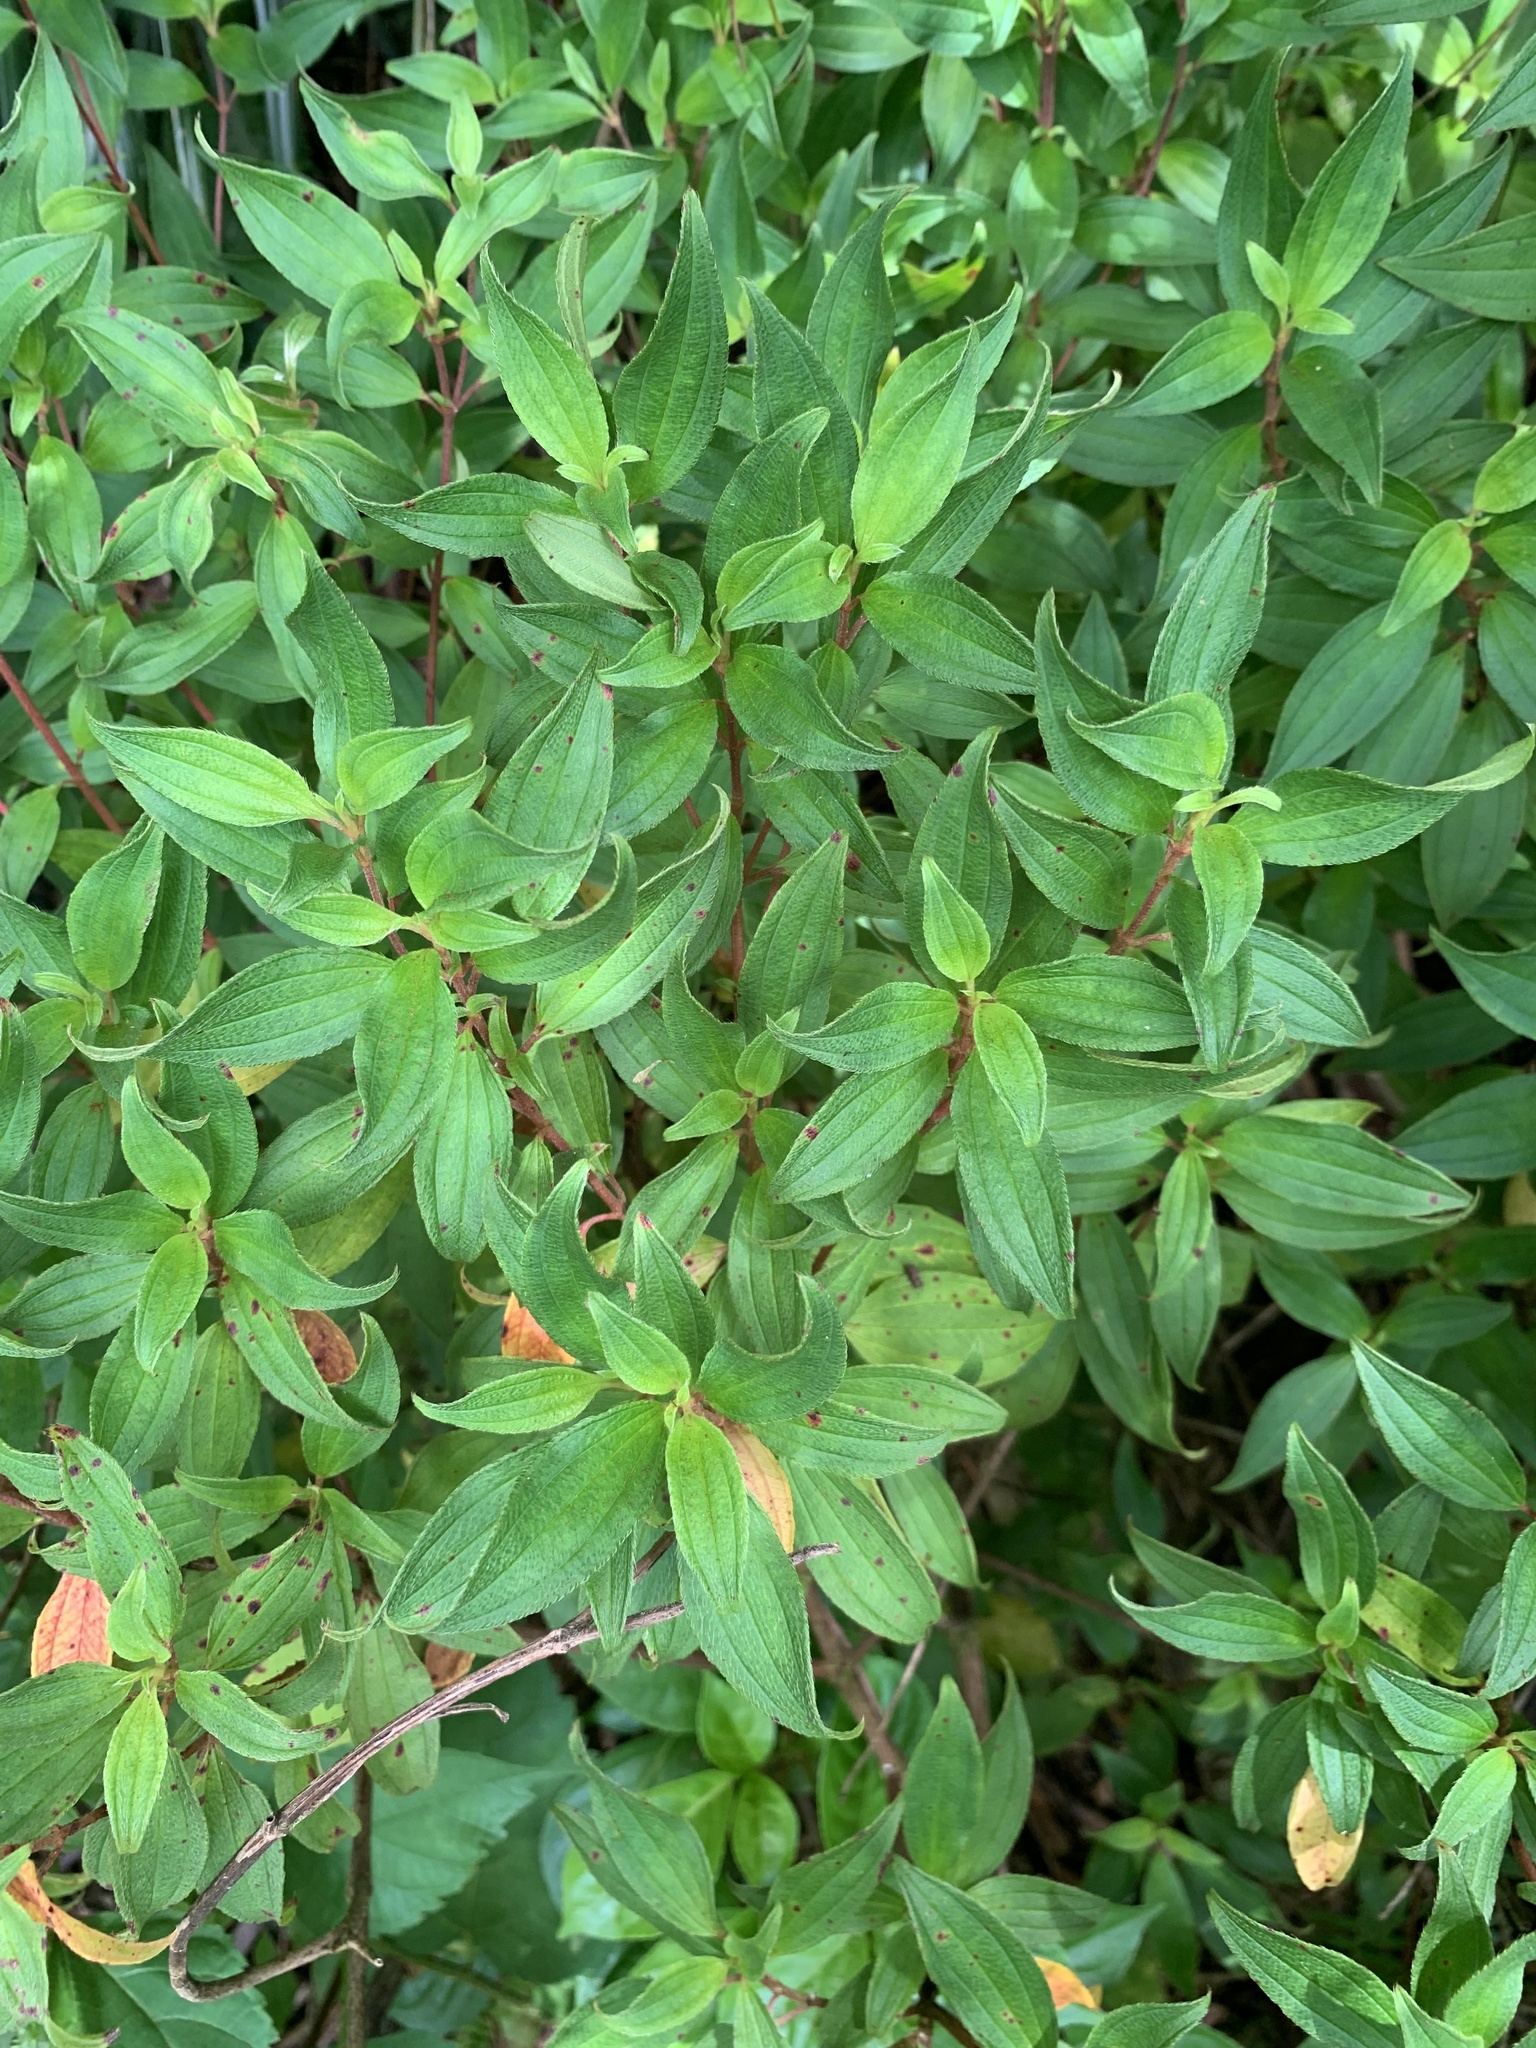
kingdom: Plantae
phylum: Tracheophyta
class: Magnoliopsida
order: Myrtales
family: Melastomataceae
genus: Melastoma
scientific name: Melastoma pentapetalum
